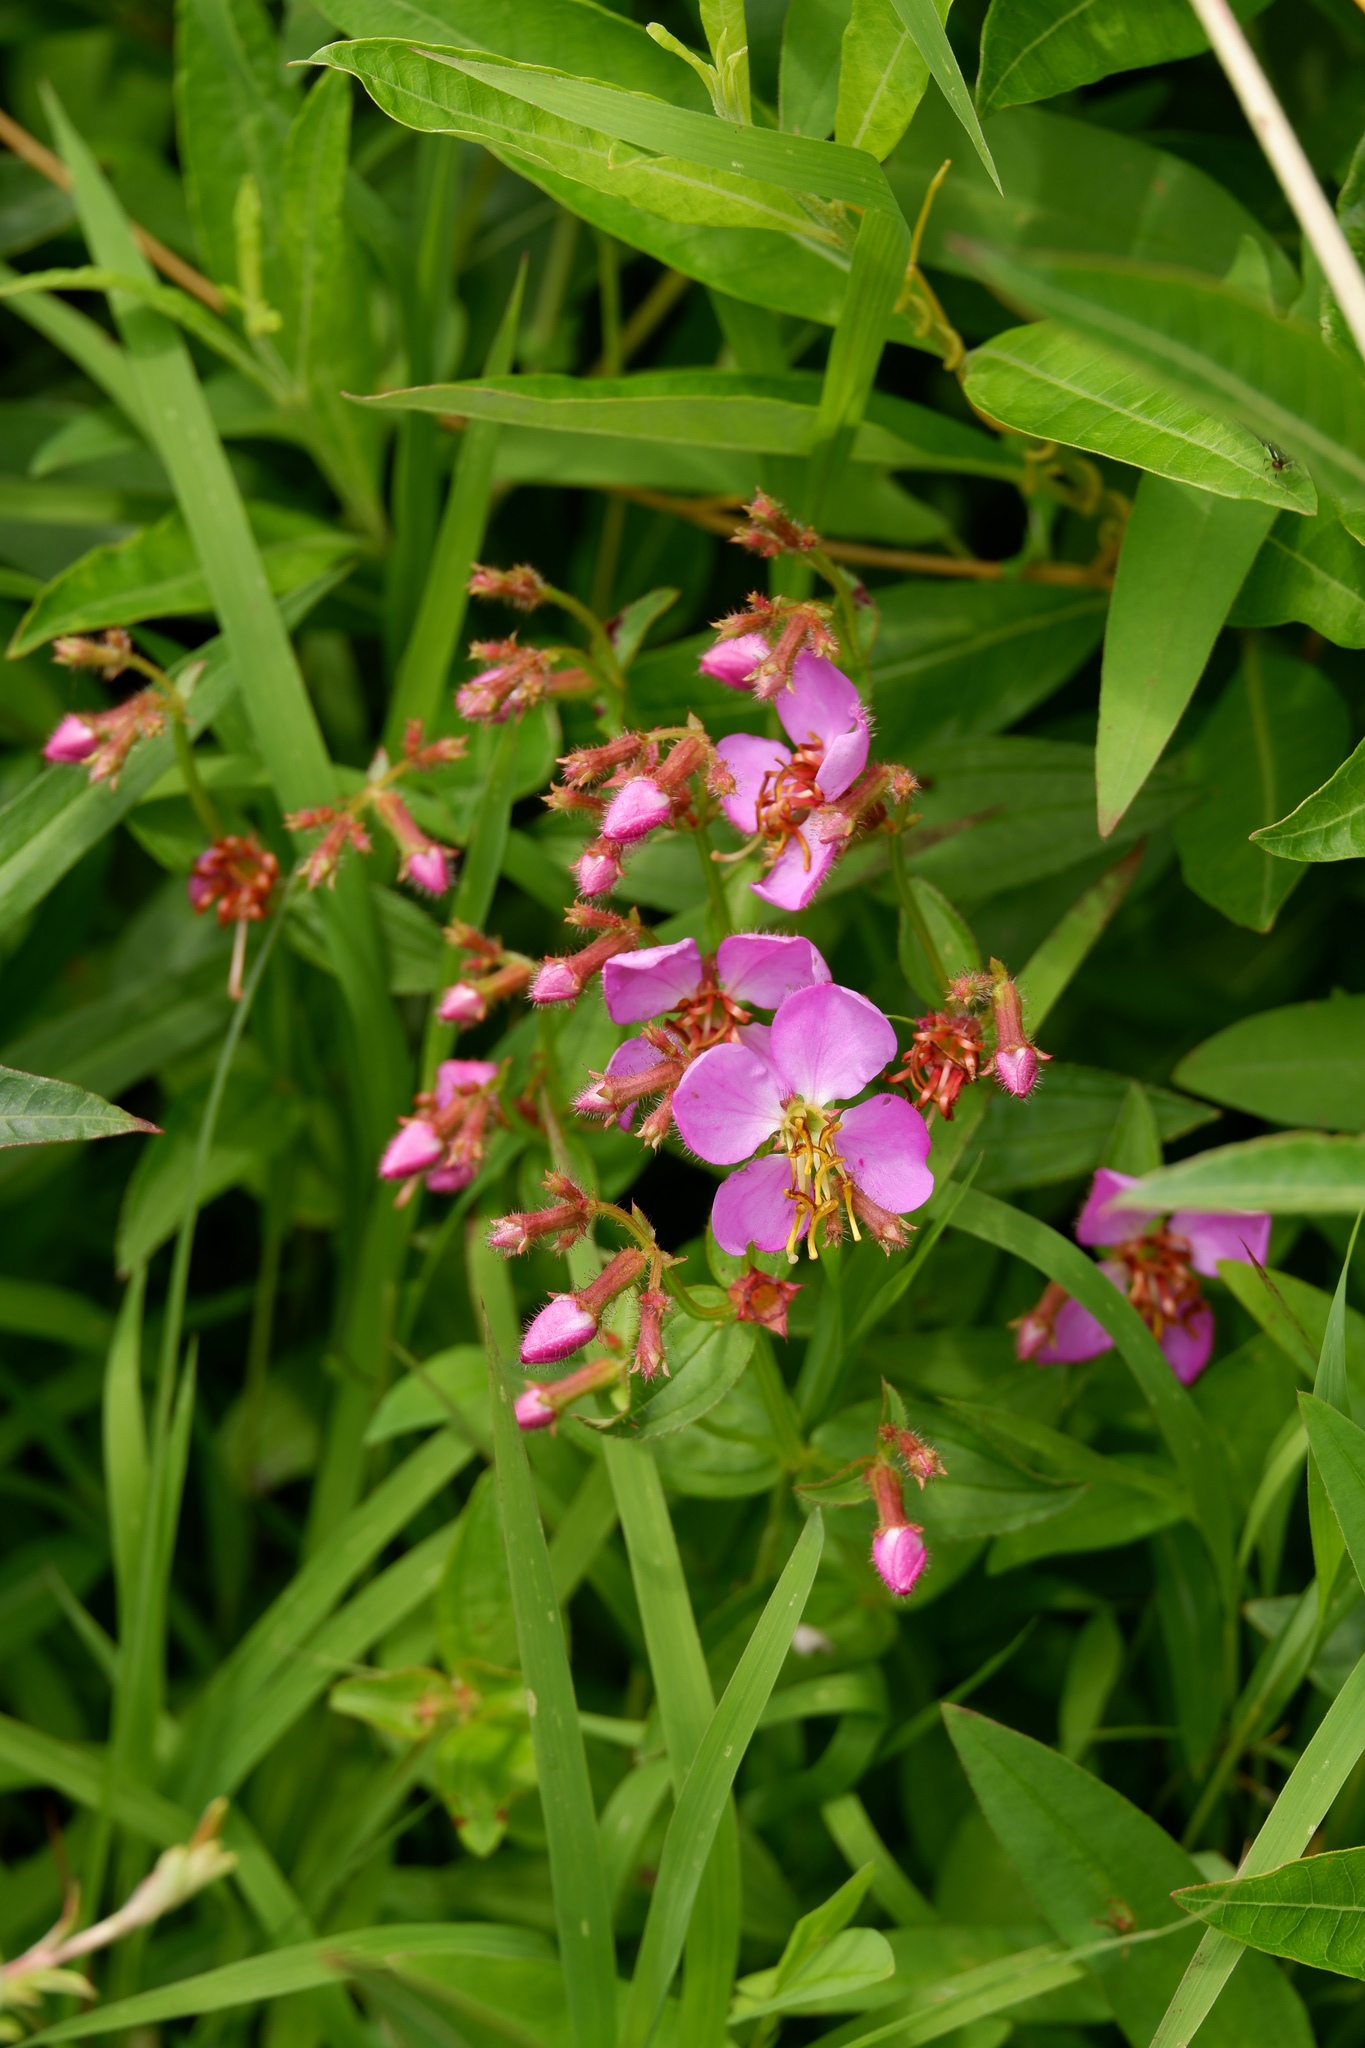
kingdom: Plantae
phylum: Tracheophyta
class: Magnoliopsida
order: Myrtales
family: Melastomataceae
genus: Rhexia
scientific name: Rhexia virginica
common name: Common meadow beauty
